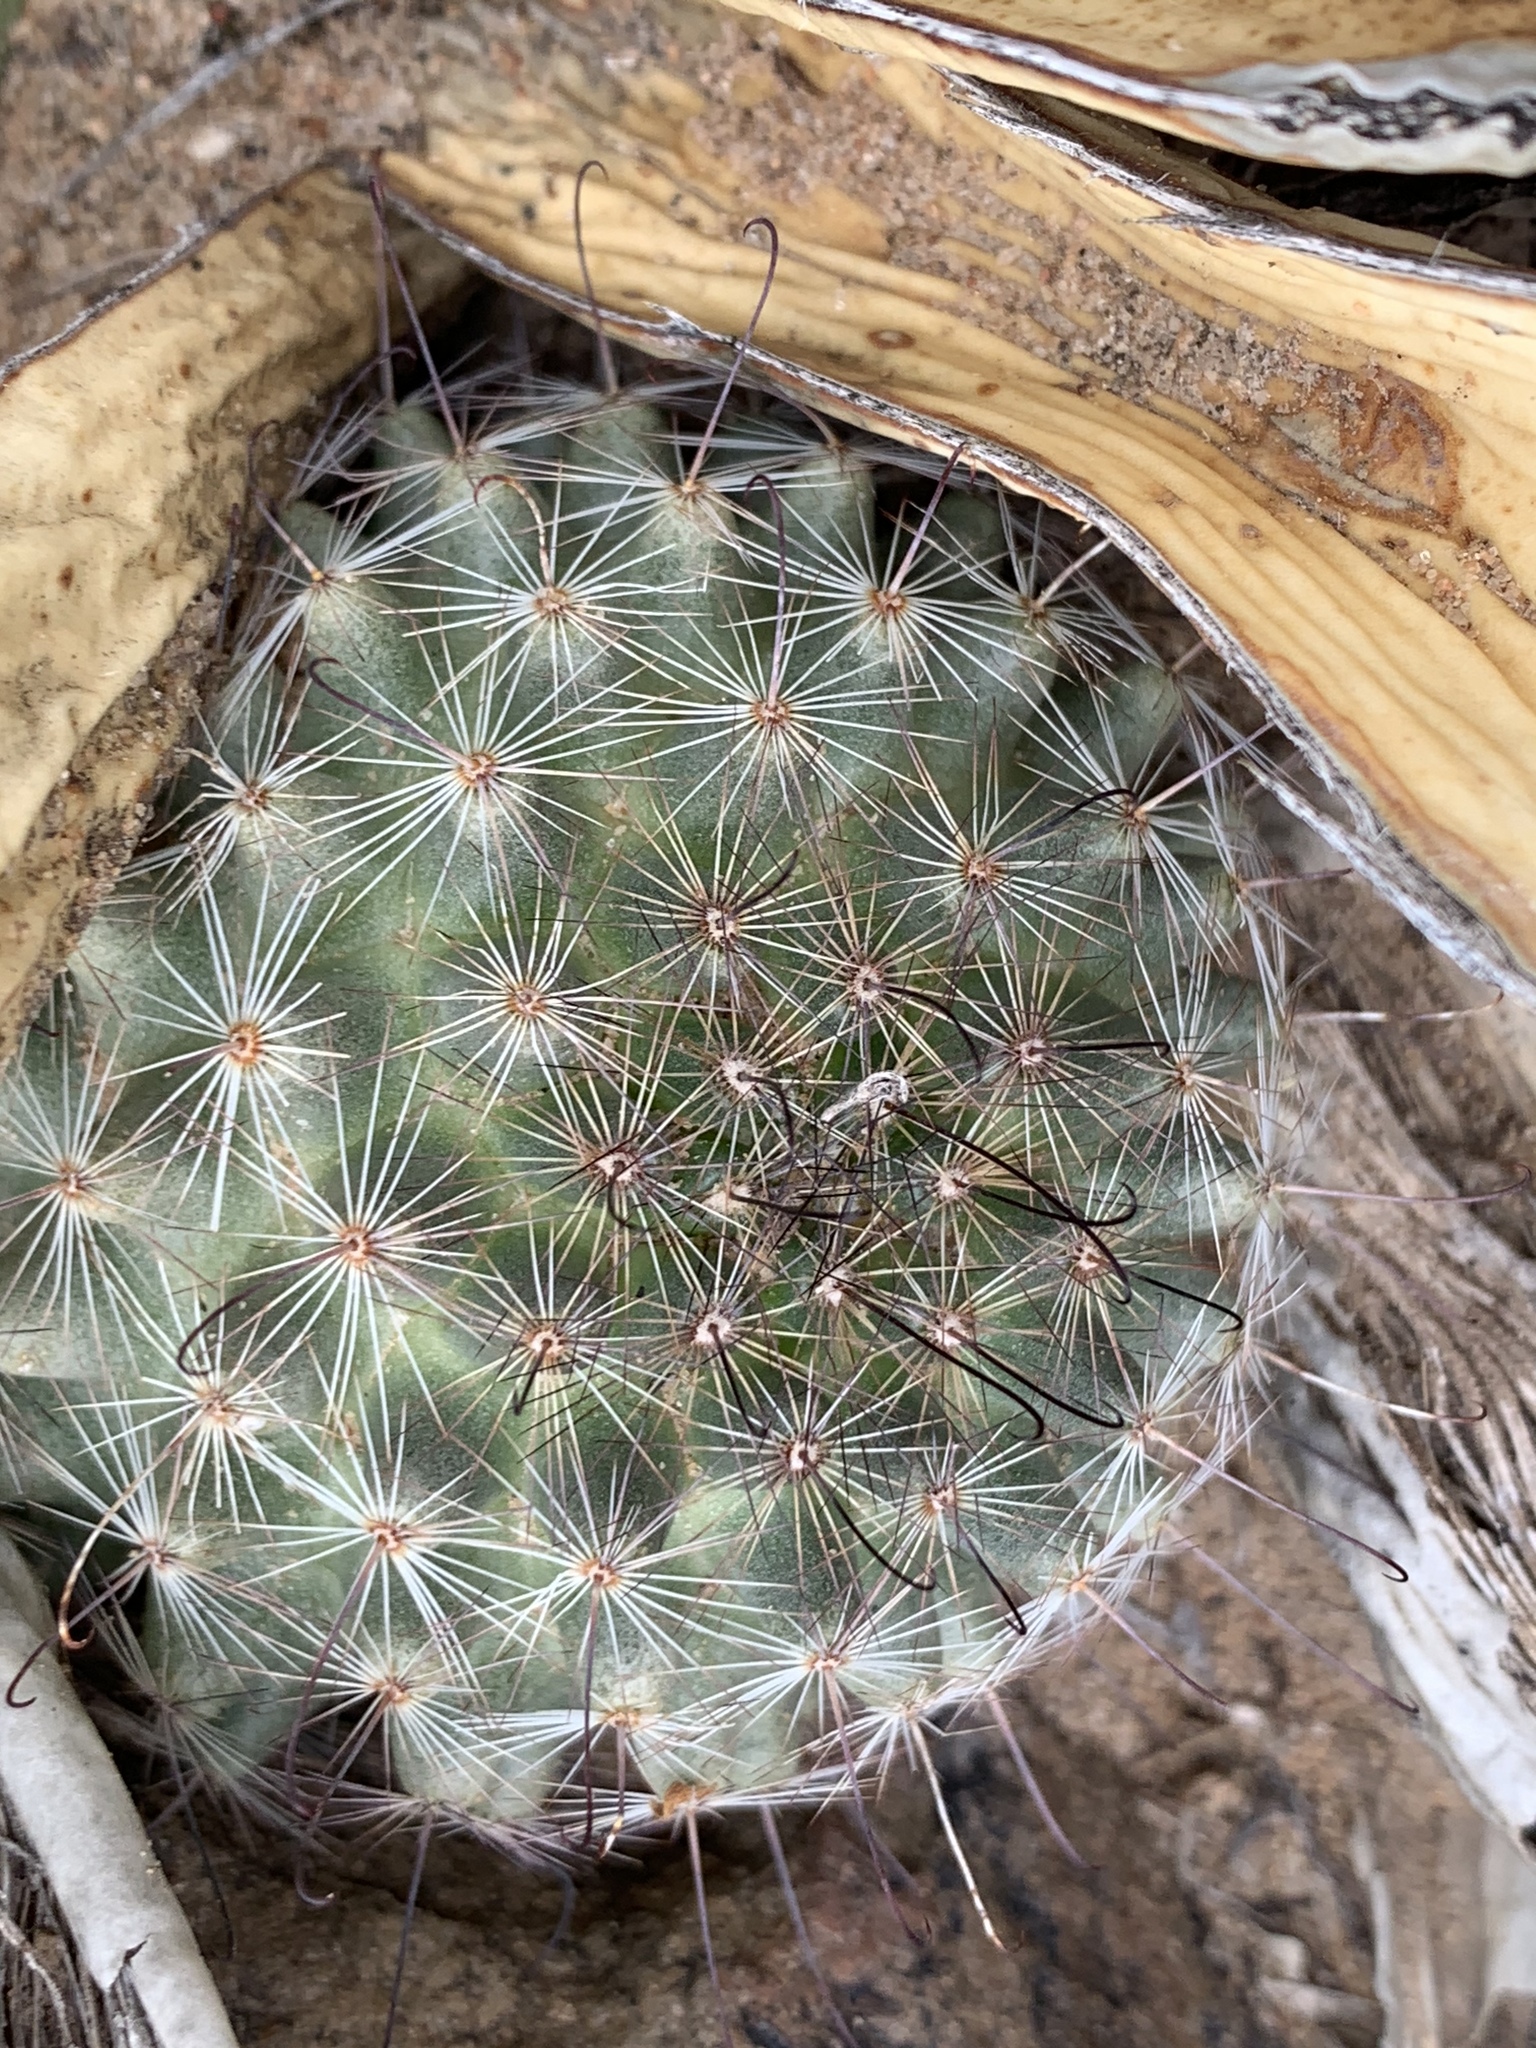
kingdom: Plantae
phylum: Tracheophyta
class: Magnoliopsida
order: Caryophyllales
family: Cactaceae
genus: Cochemiea
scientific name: Cochemiea grahamii
